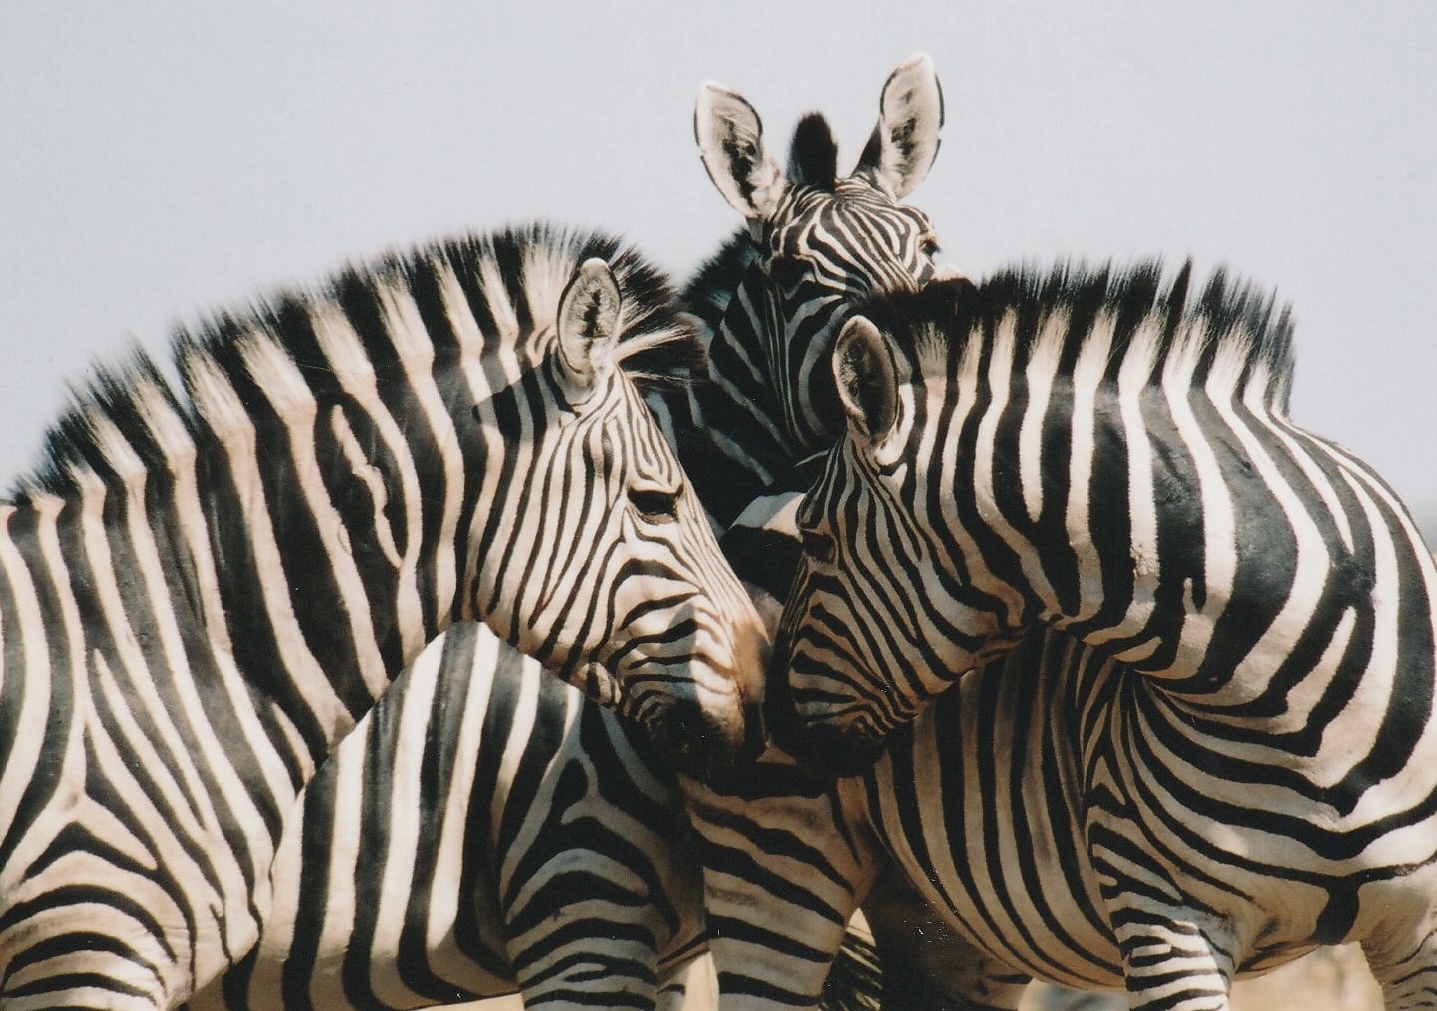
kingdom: Animalia
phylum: Chordata
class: Mammalia
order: Perissodactyla
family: Equidae
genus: Equus
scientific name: Equus quagga
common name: Plains zebra
